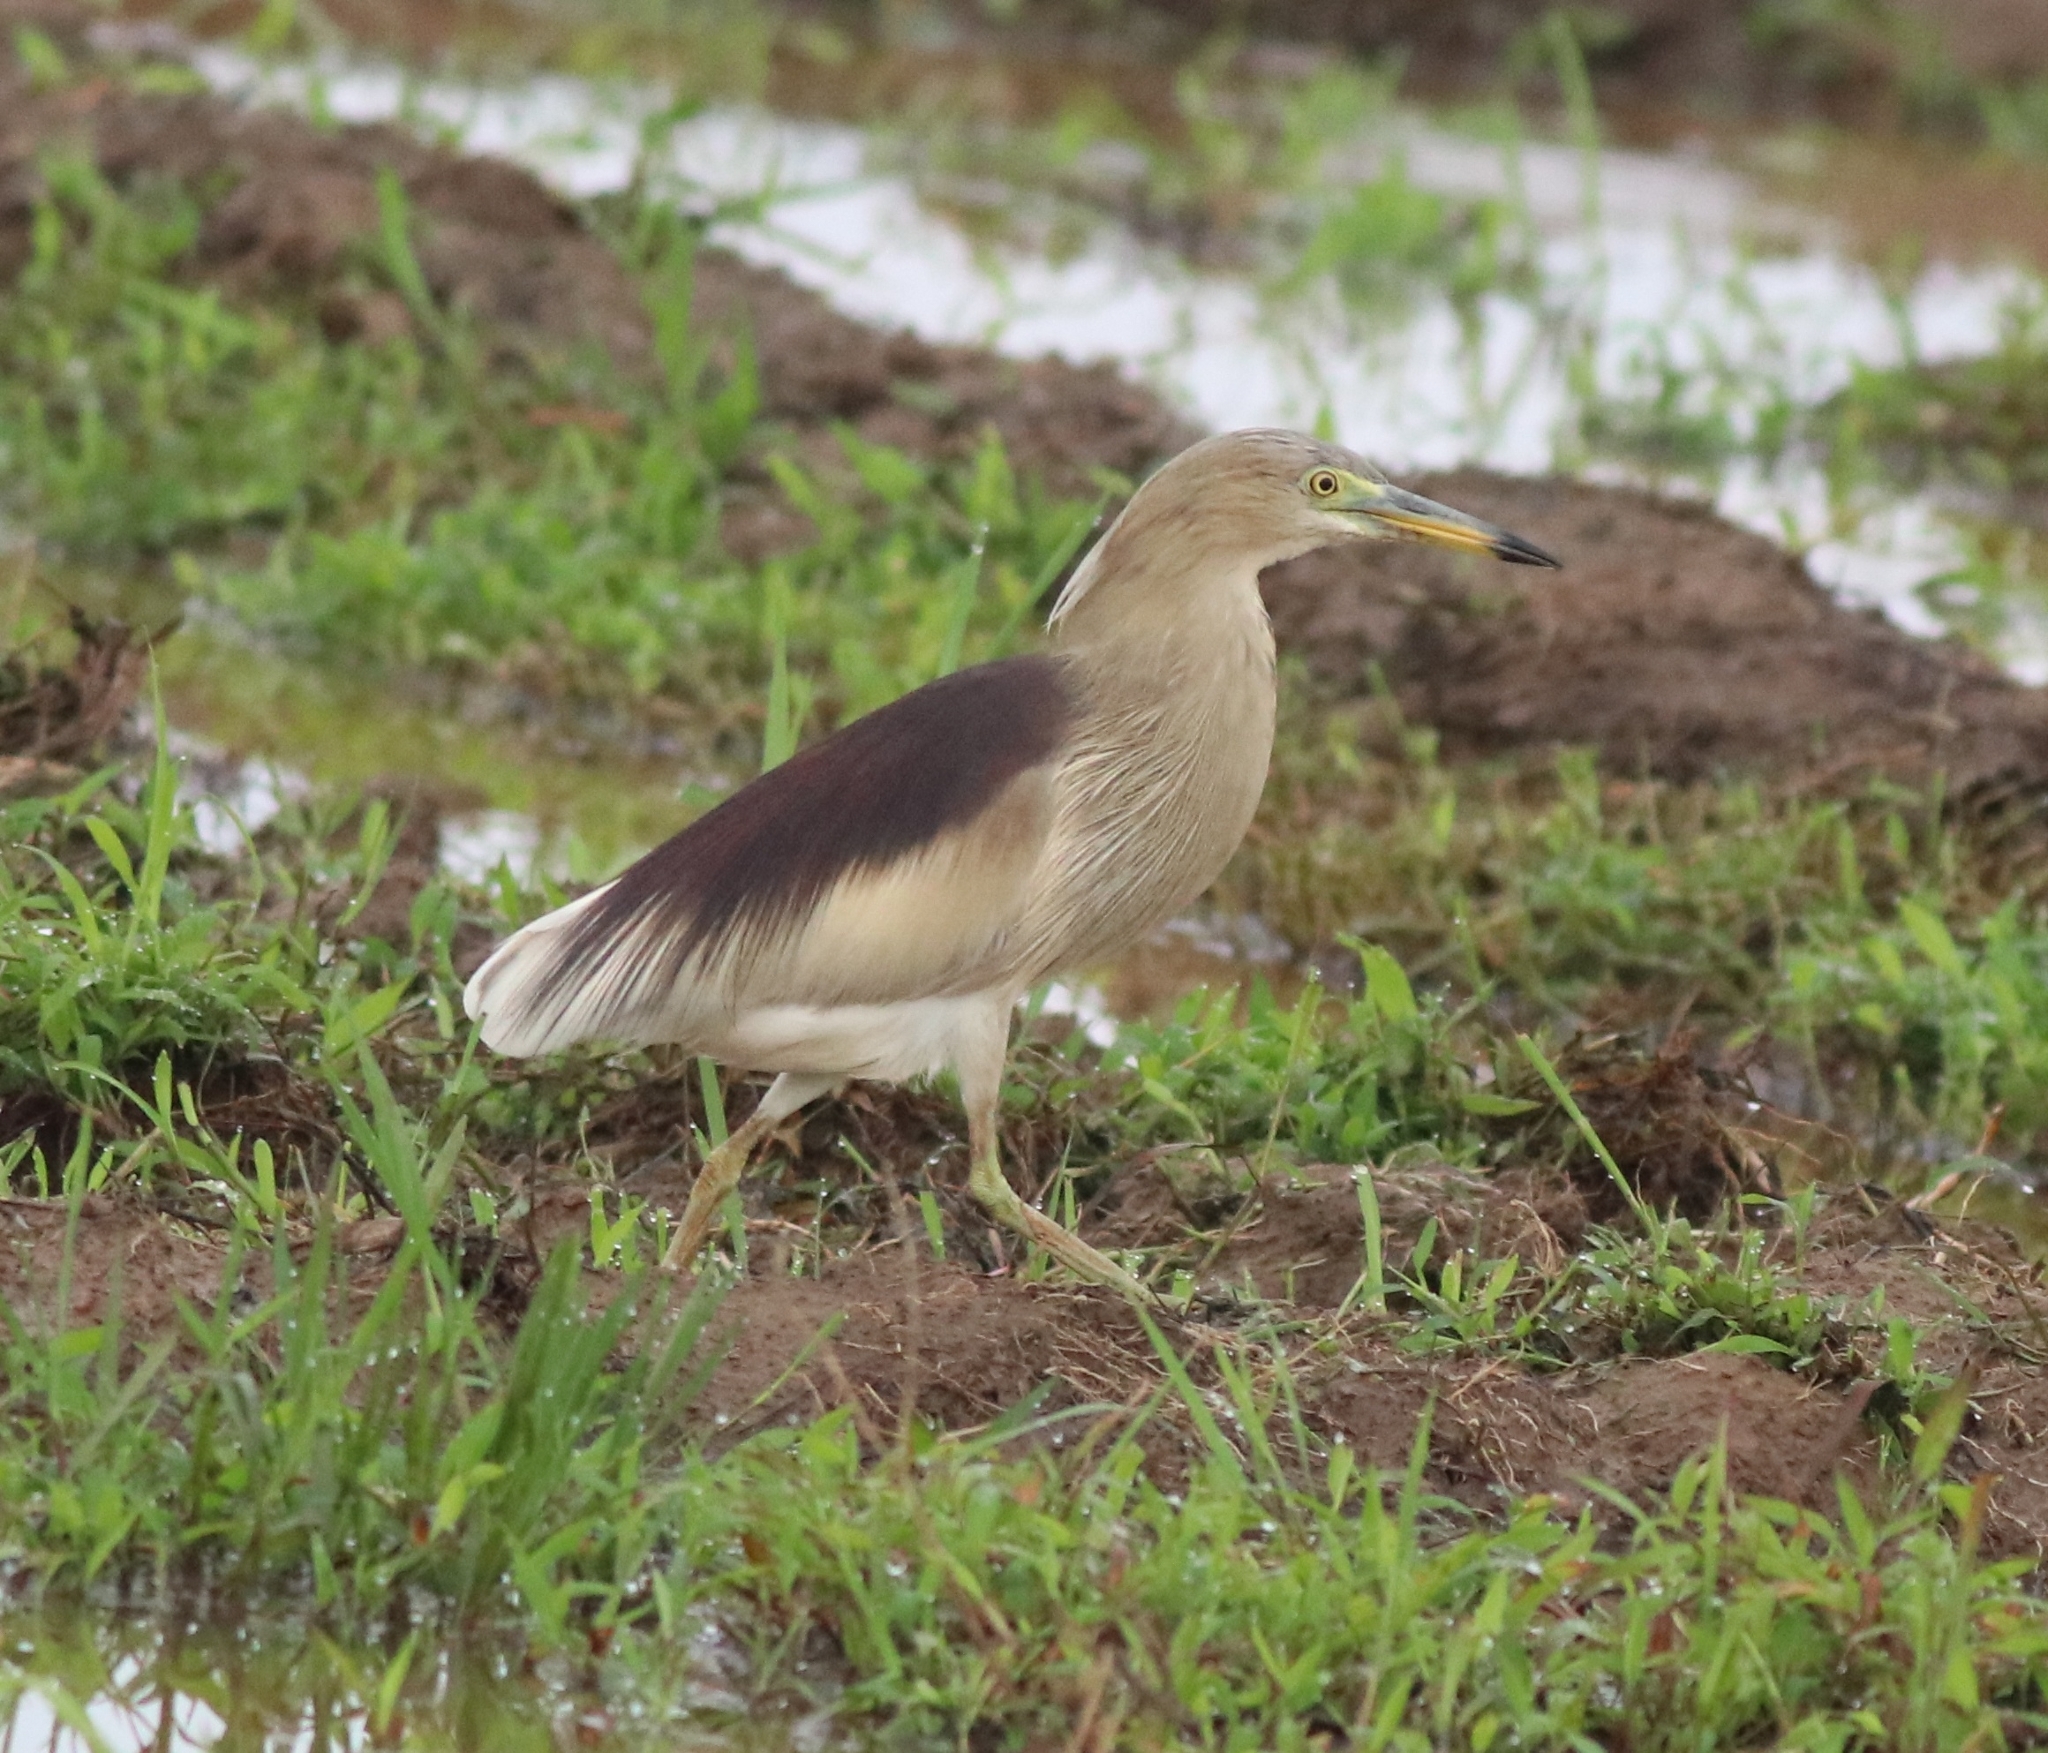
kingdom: Animalia
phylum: Chordata
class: Aves
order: Pelecaniformes
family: Ardeidae
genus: Ardeola
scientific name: Ardeola grayii
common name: Indian pond heron
